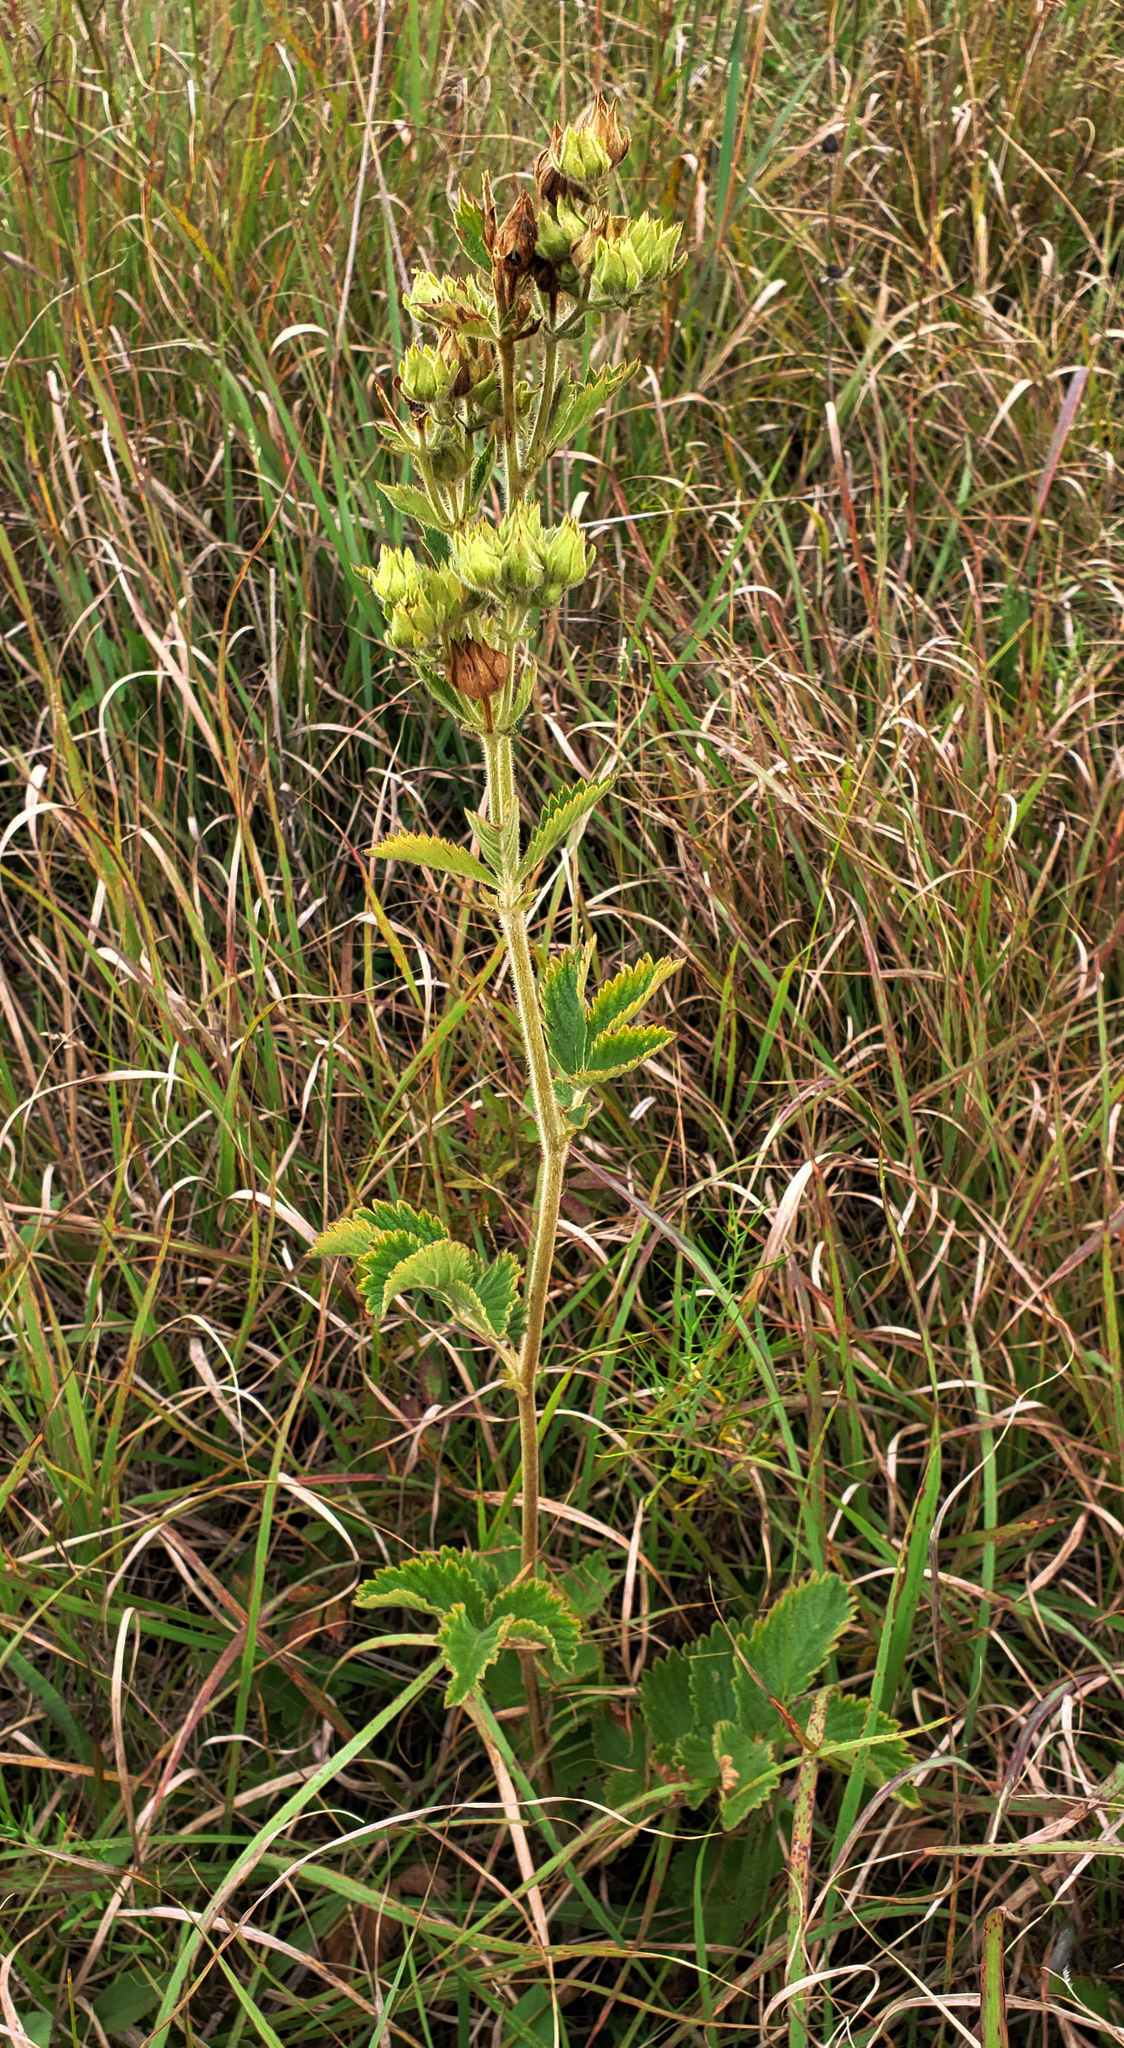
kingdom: Plantae
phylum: Tracheophyta
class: Magnoliopsida
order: Rosales
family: Rosaceae
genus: Drymocallis
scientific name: Drymocallis arguta
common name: Tall cinquefoil
